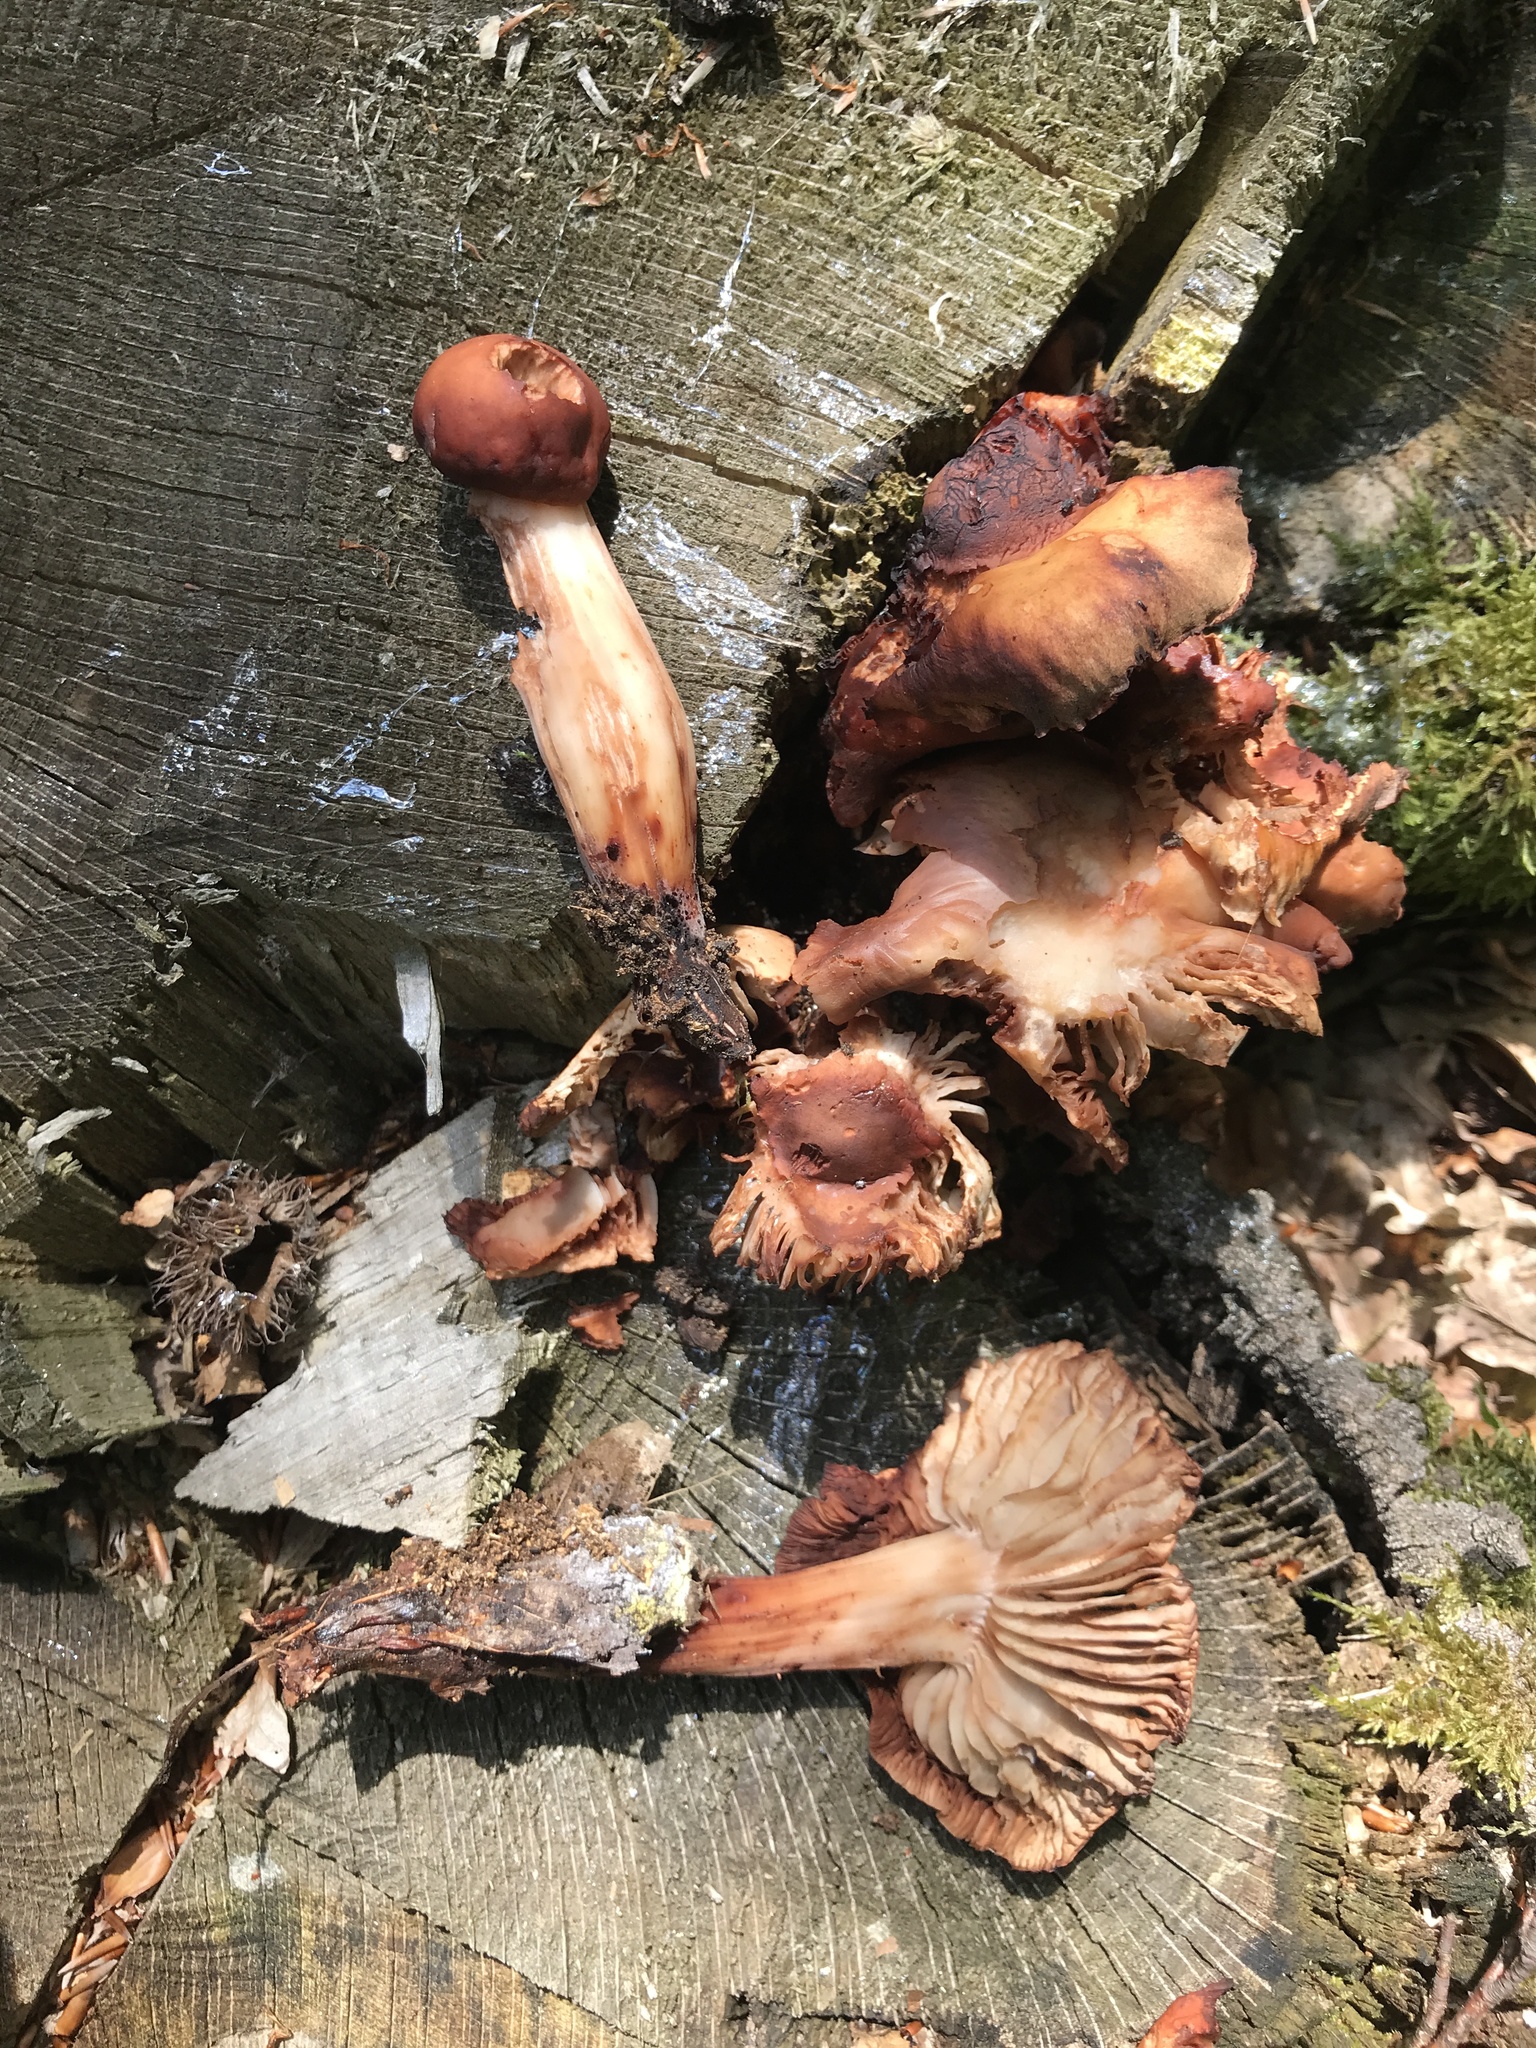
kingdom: Fungi
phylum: Basidiomycota
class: Agaricomycetes
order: Agaricales
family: Omphalotaceae
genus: Gymnopus
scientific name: Gymnopus fusipes
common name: Spindle shank
